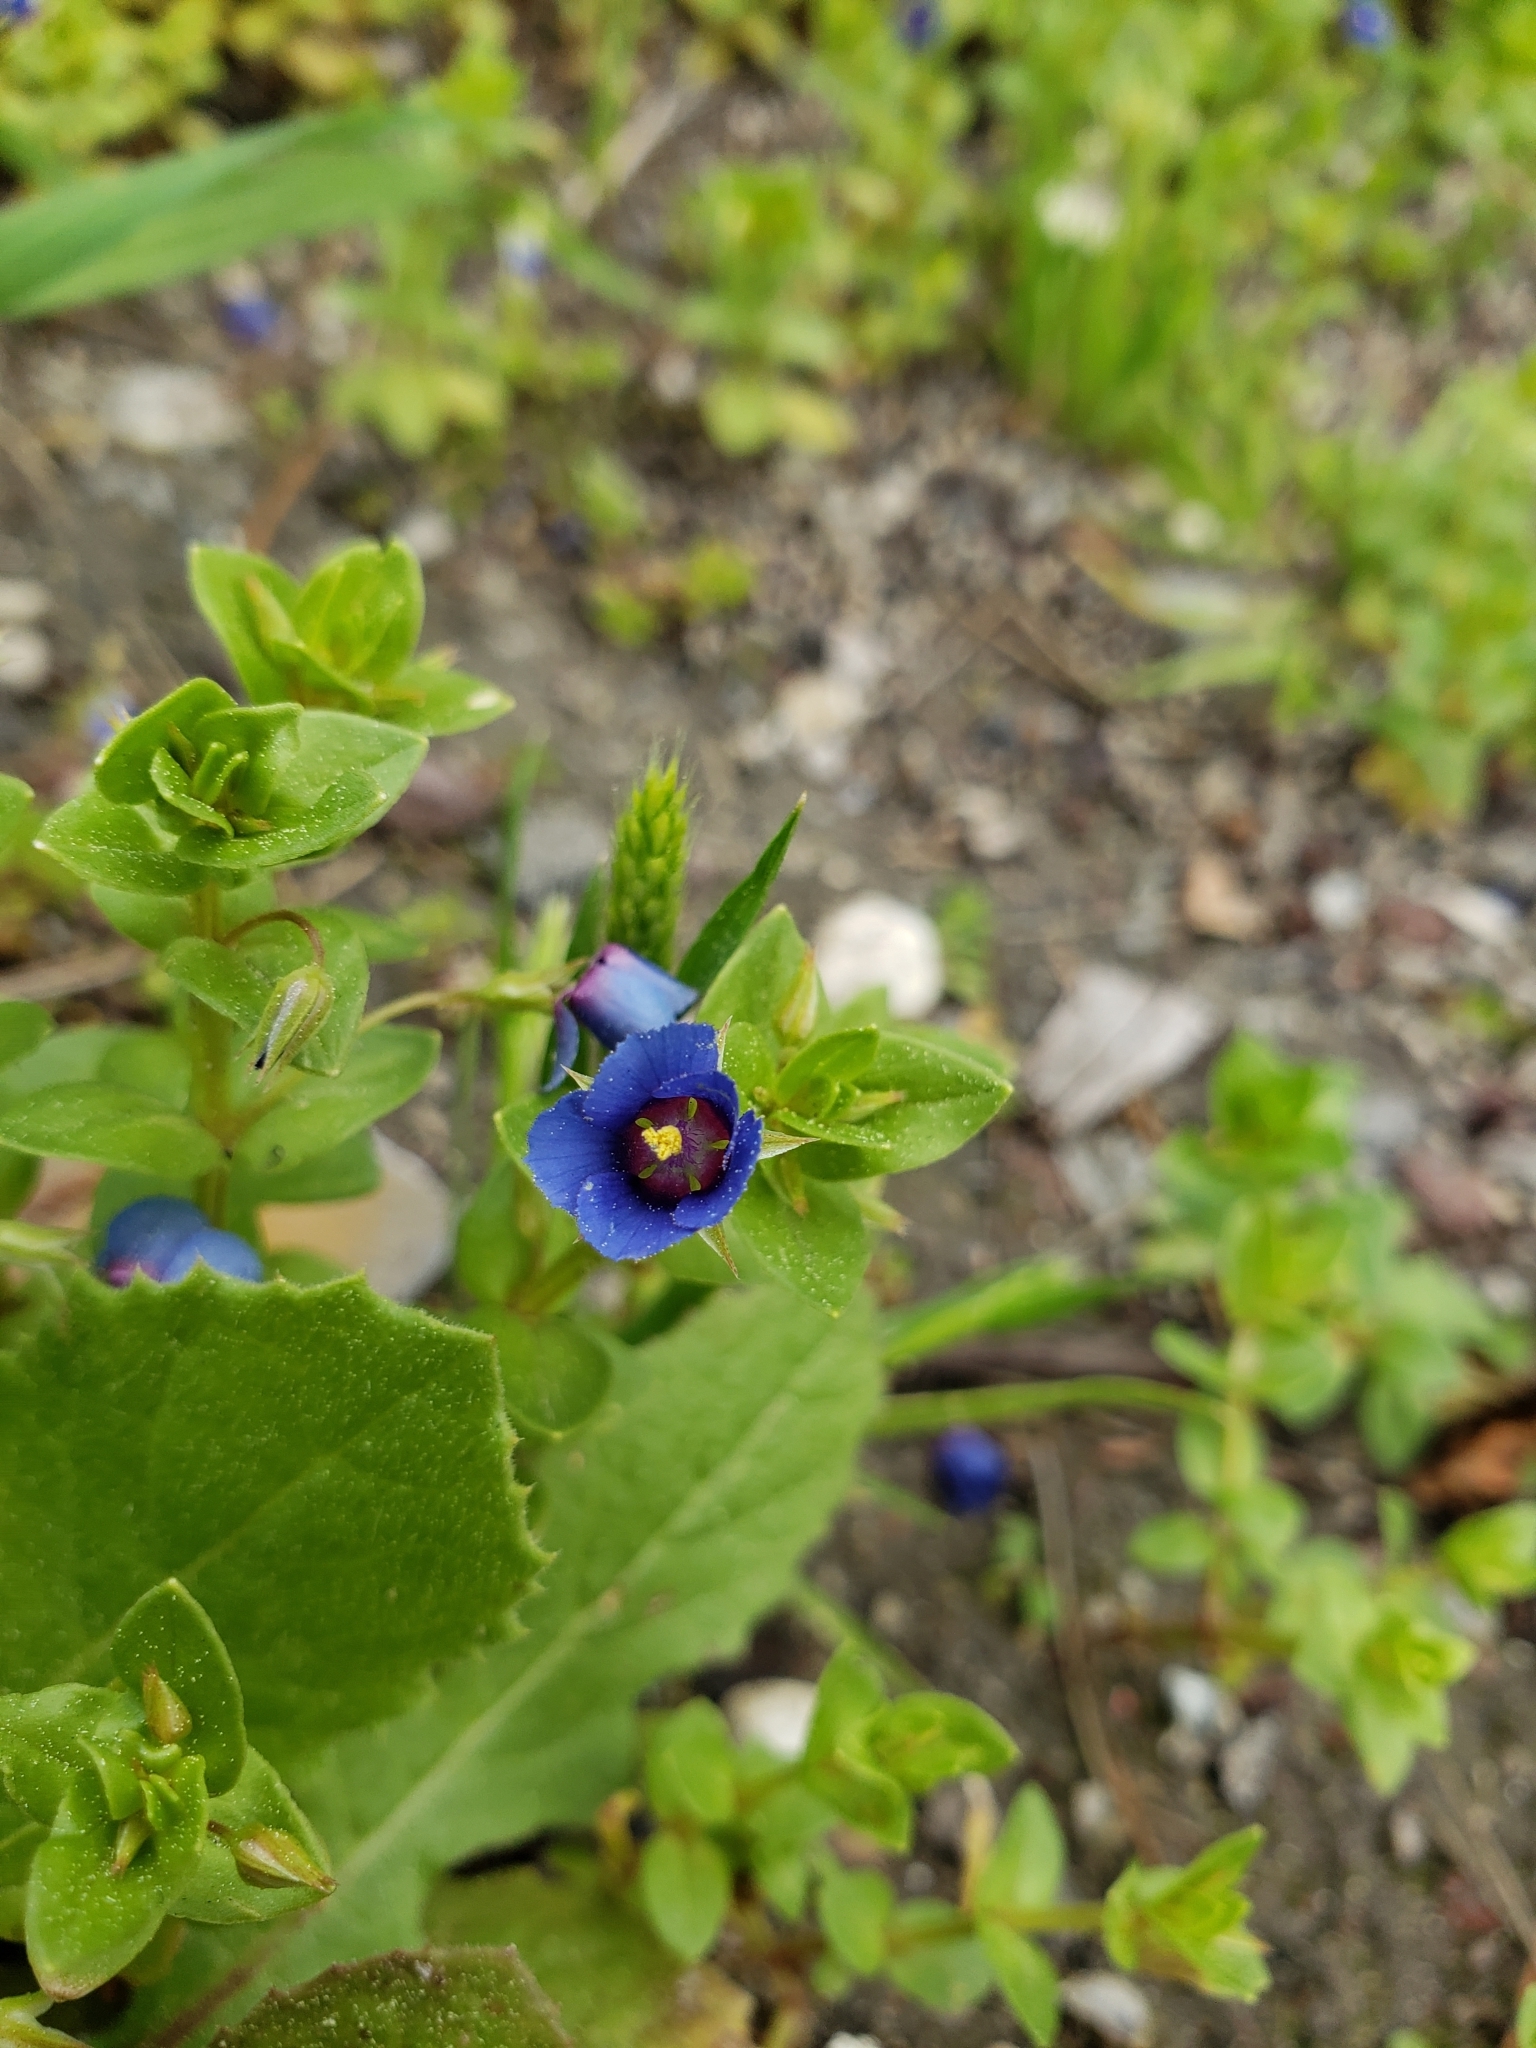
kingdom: Plantae
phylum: Tracheophyta
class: Magnoliopsida
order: Ericales
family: Primulaceae
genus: Lysimachia
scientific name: Lysimachia arvensis
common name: Scarlet pimpernel
